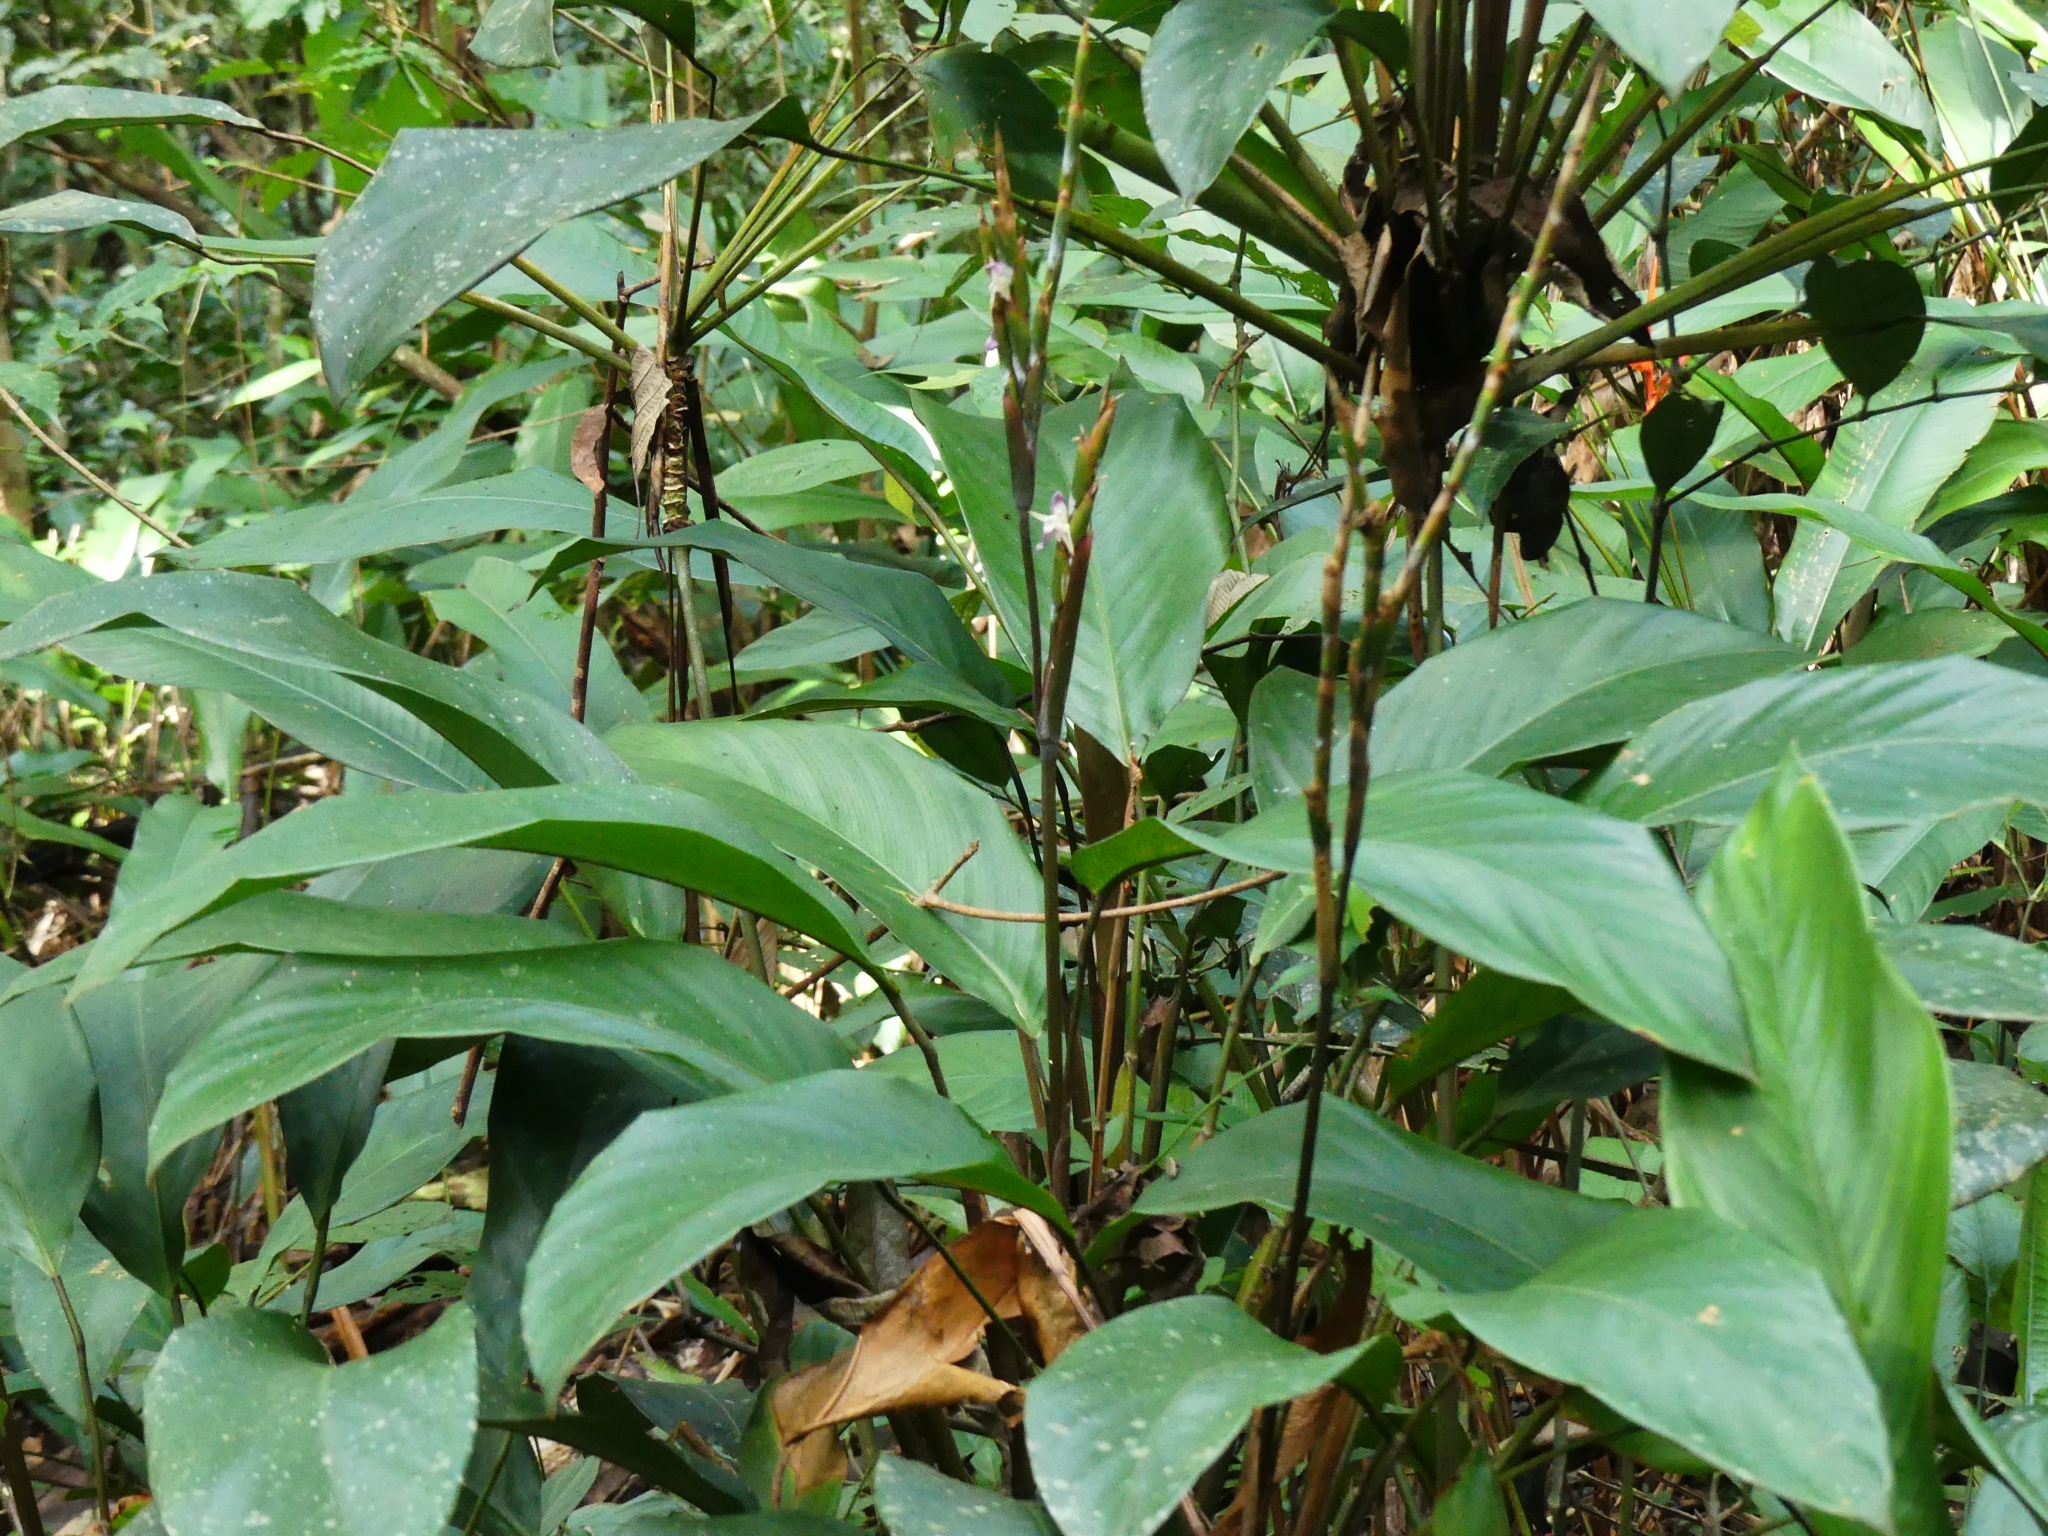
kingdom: Plantae
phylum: Tracheophyta
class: Liliopsida
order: Zingiberales
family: Marantaceae
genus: Ischnosiphon
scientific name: Ischnosiphon petiolatus
